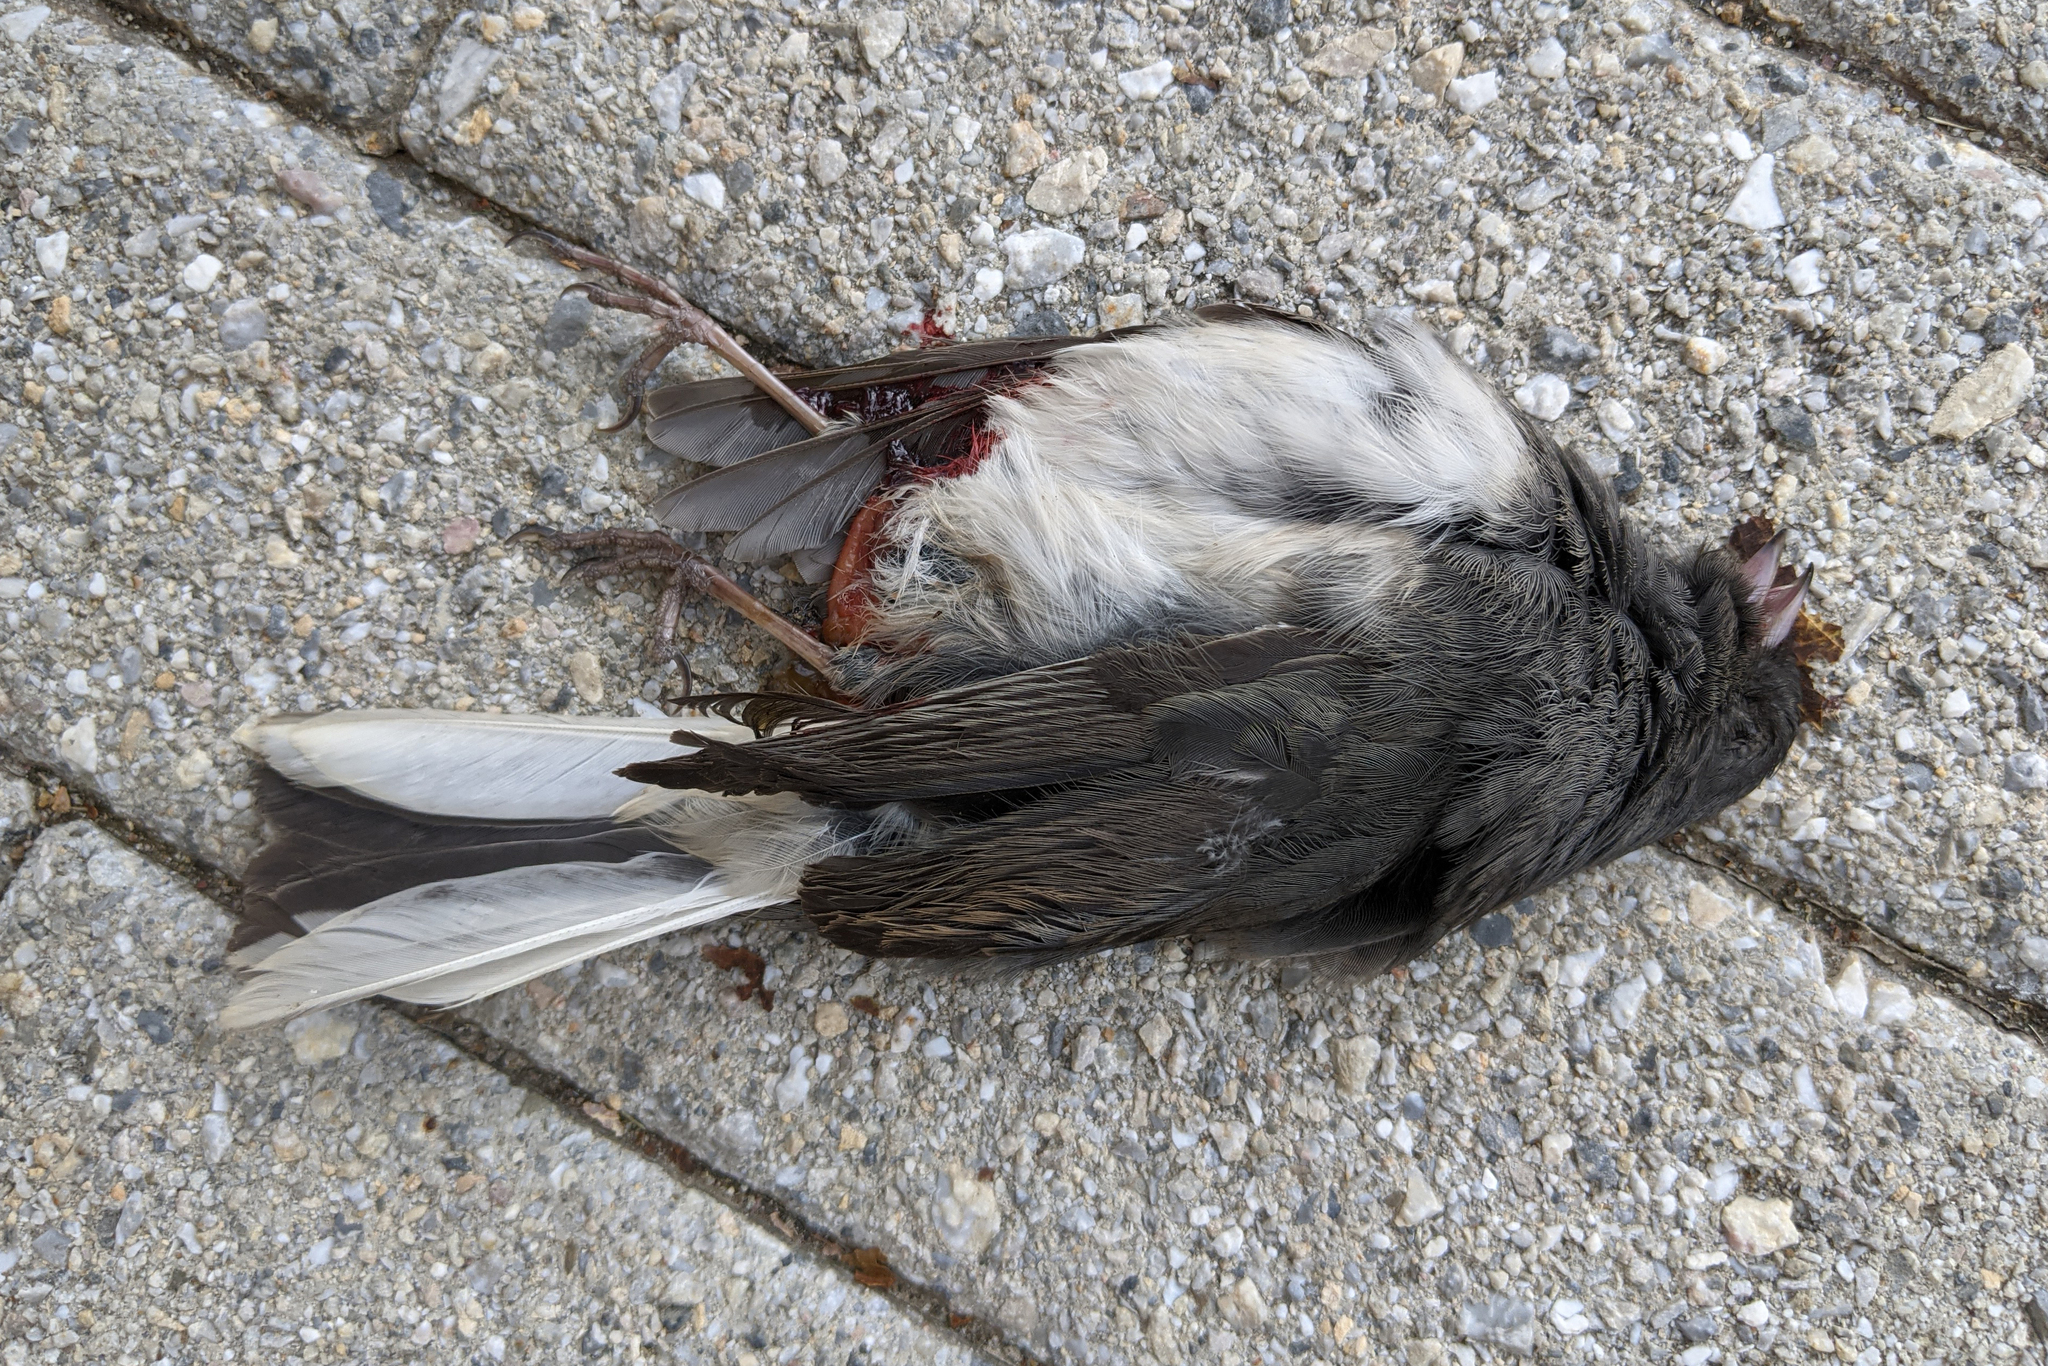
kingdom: Animalia
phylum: Chordata
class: Aves
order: Passeriformes
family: Passerellidae
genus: Junco
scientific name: Junco hyemalis
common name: Dark-eyed junco
